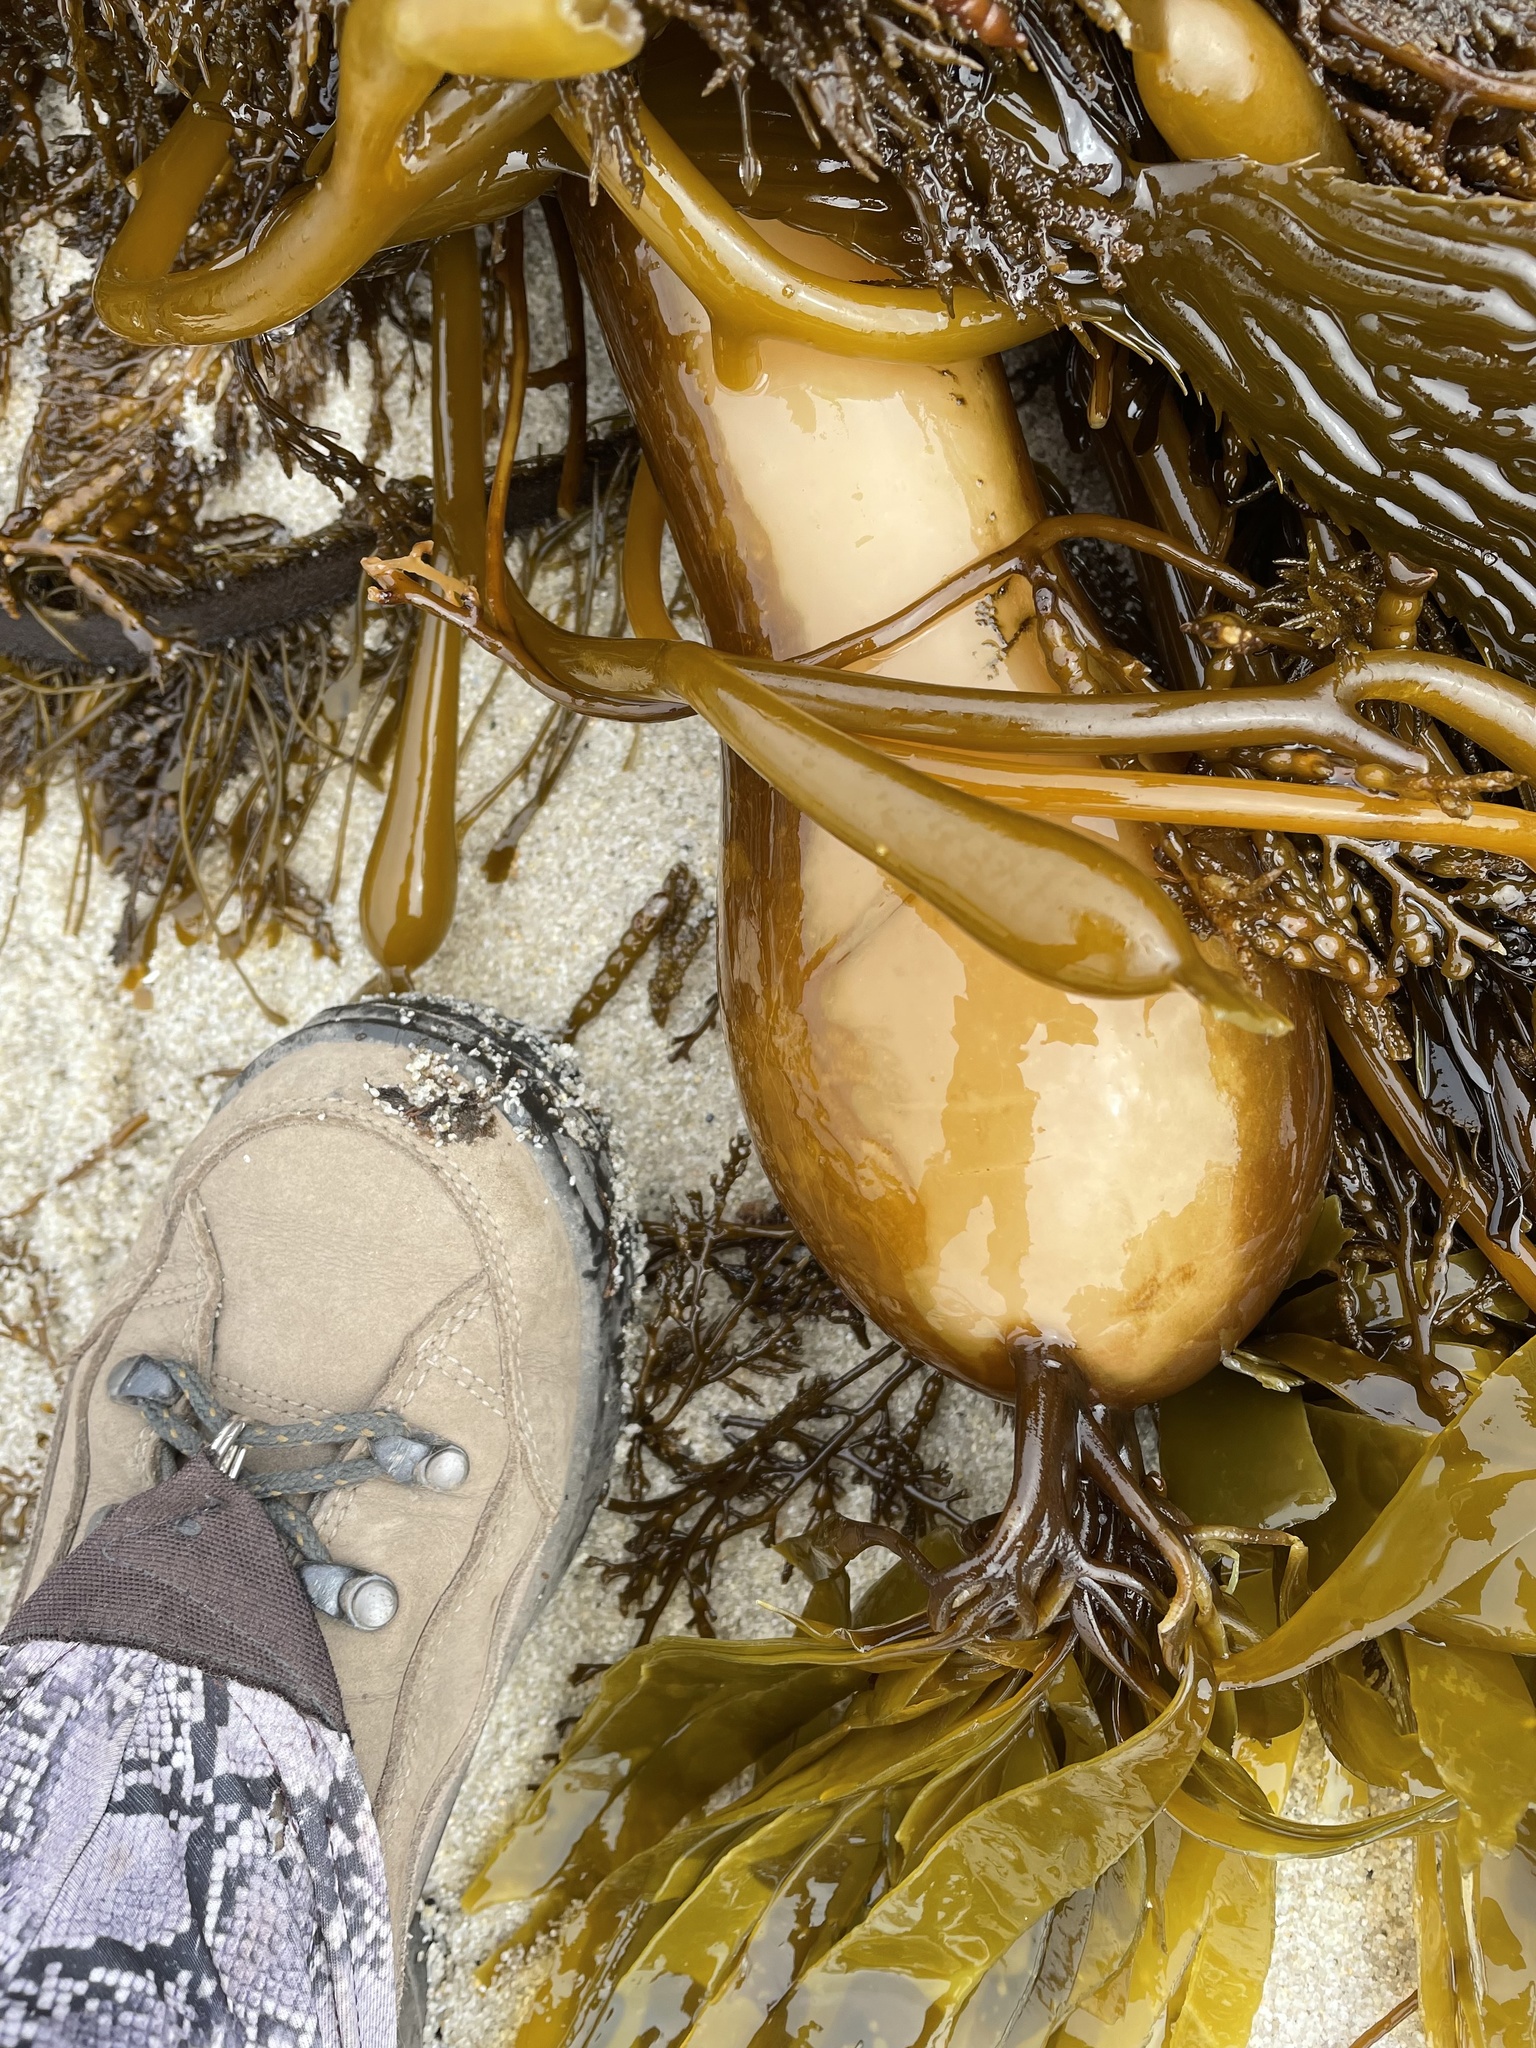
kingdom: Chromista
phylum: Ochrophyta
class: Phaeophyceae
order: Laminariales
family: Laminariaceae
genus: Nereocystis
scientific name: Nereocystis luetkeana
